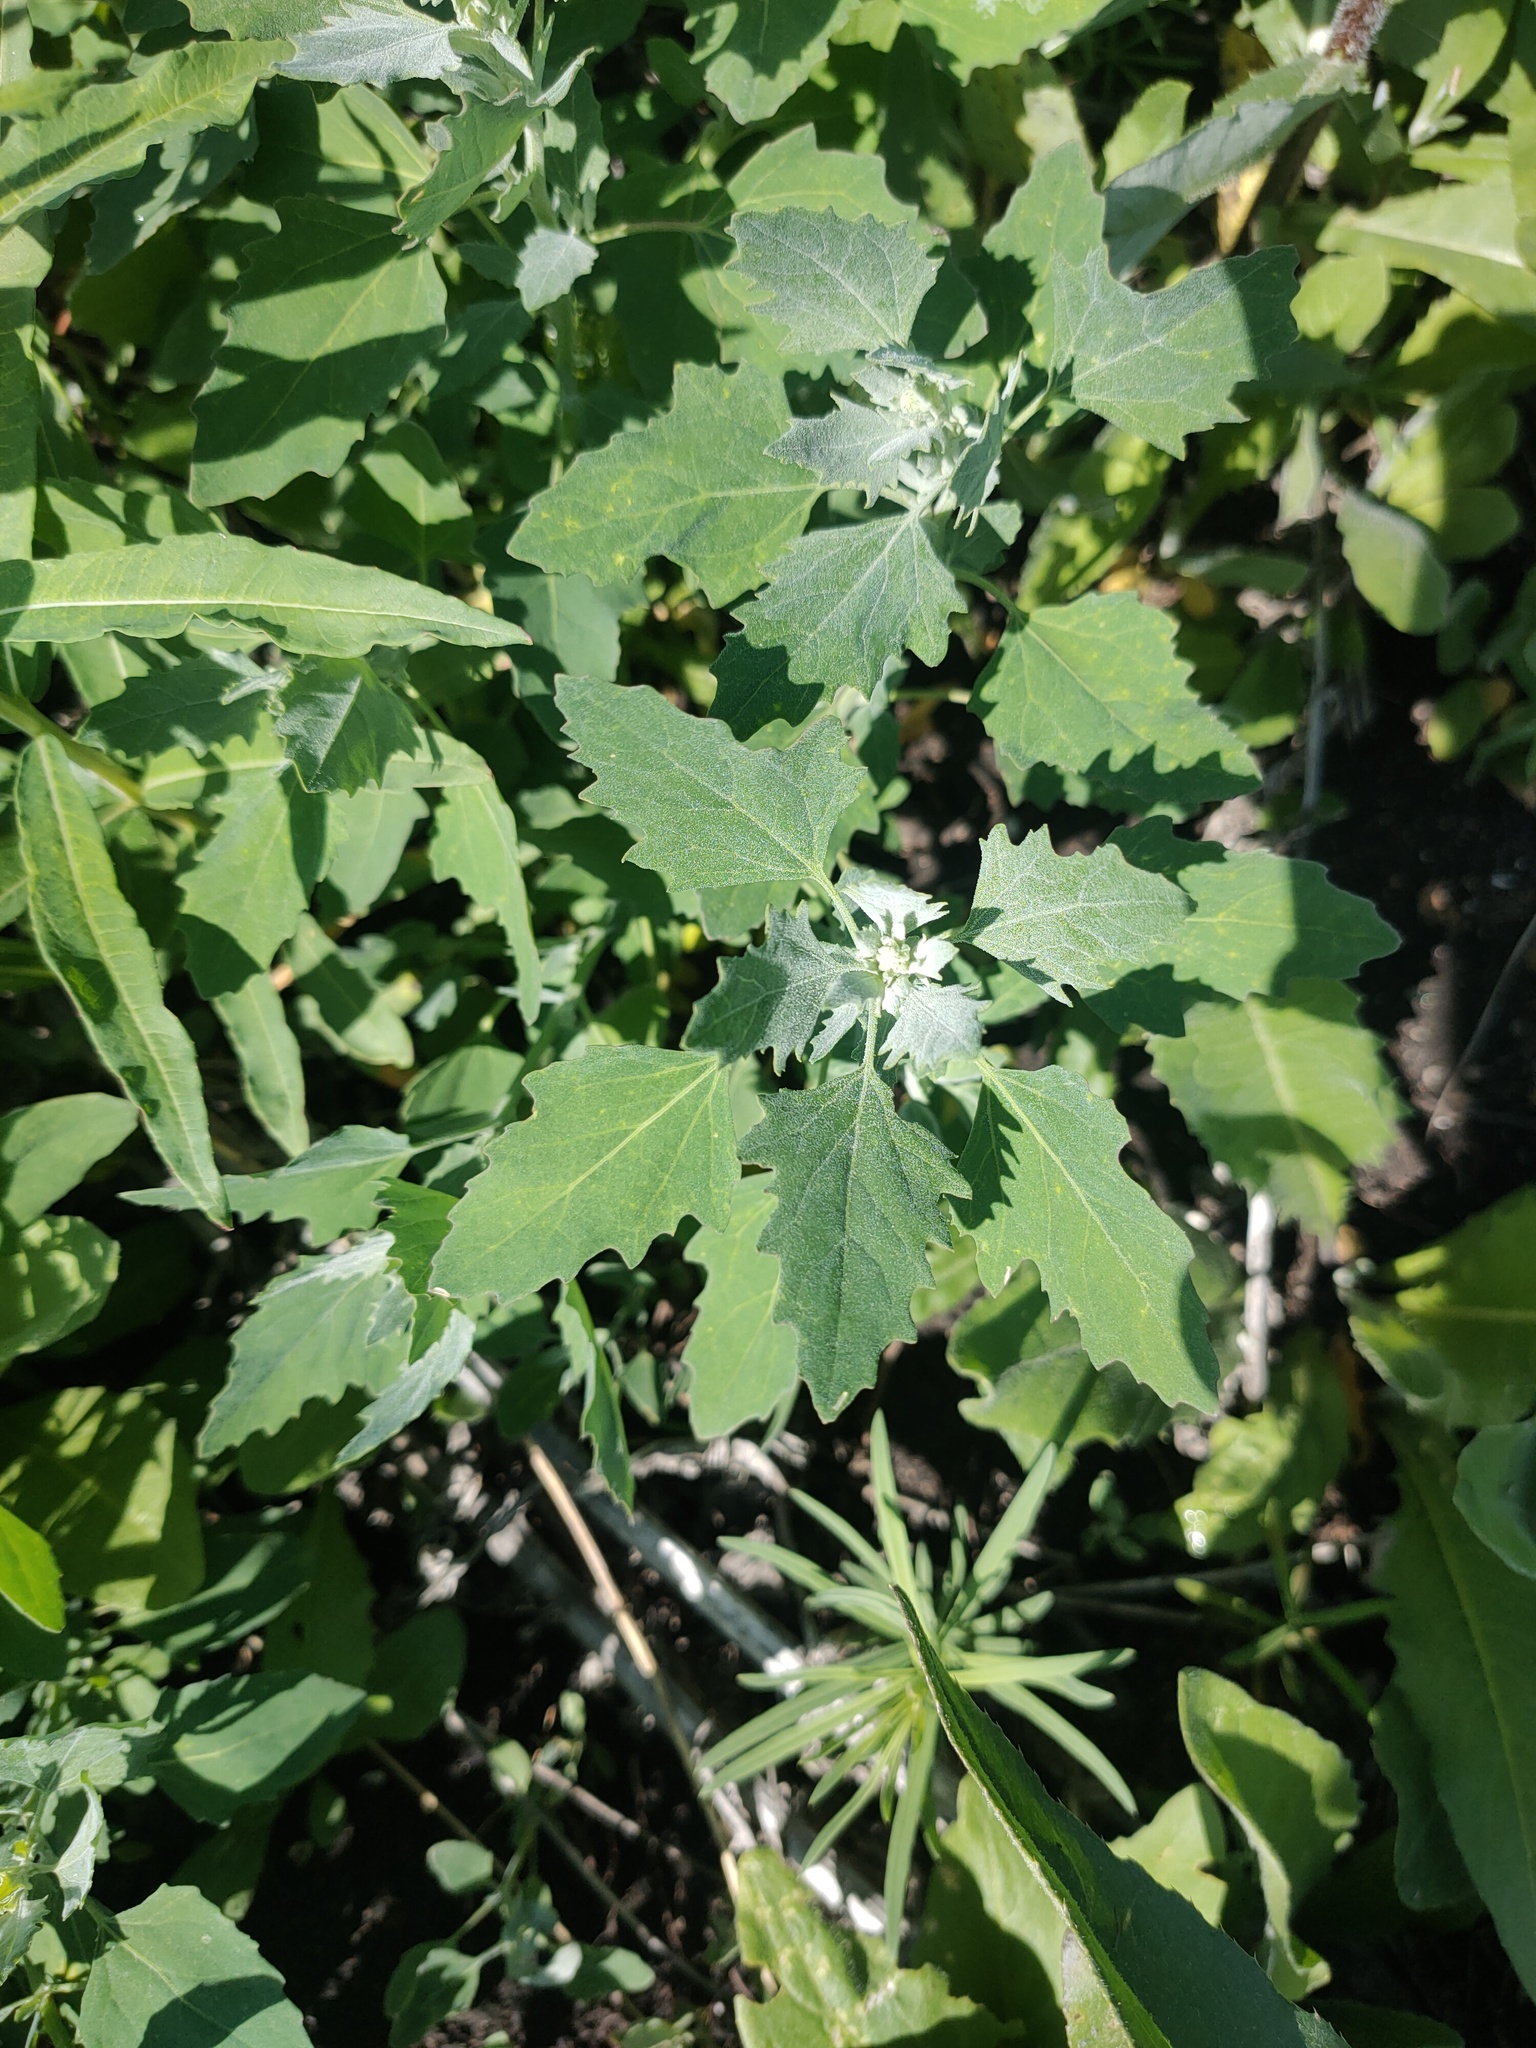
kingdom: Plantae
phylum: Tracheophyta
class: Magnoliopsida
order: Caryophyllales
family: Amaranthaceae
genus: Chenopodium
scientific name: Chenopodium album
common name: Fat-hen
